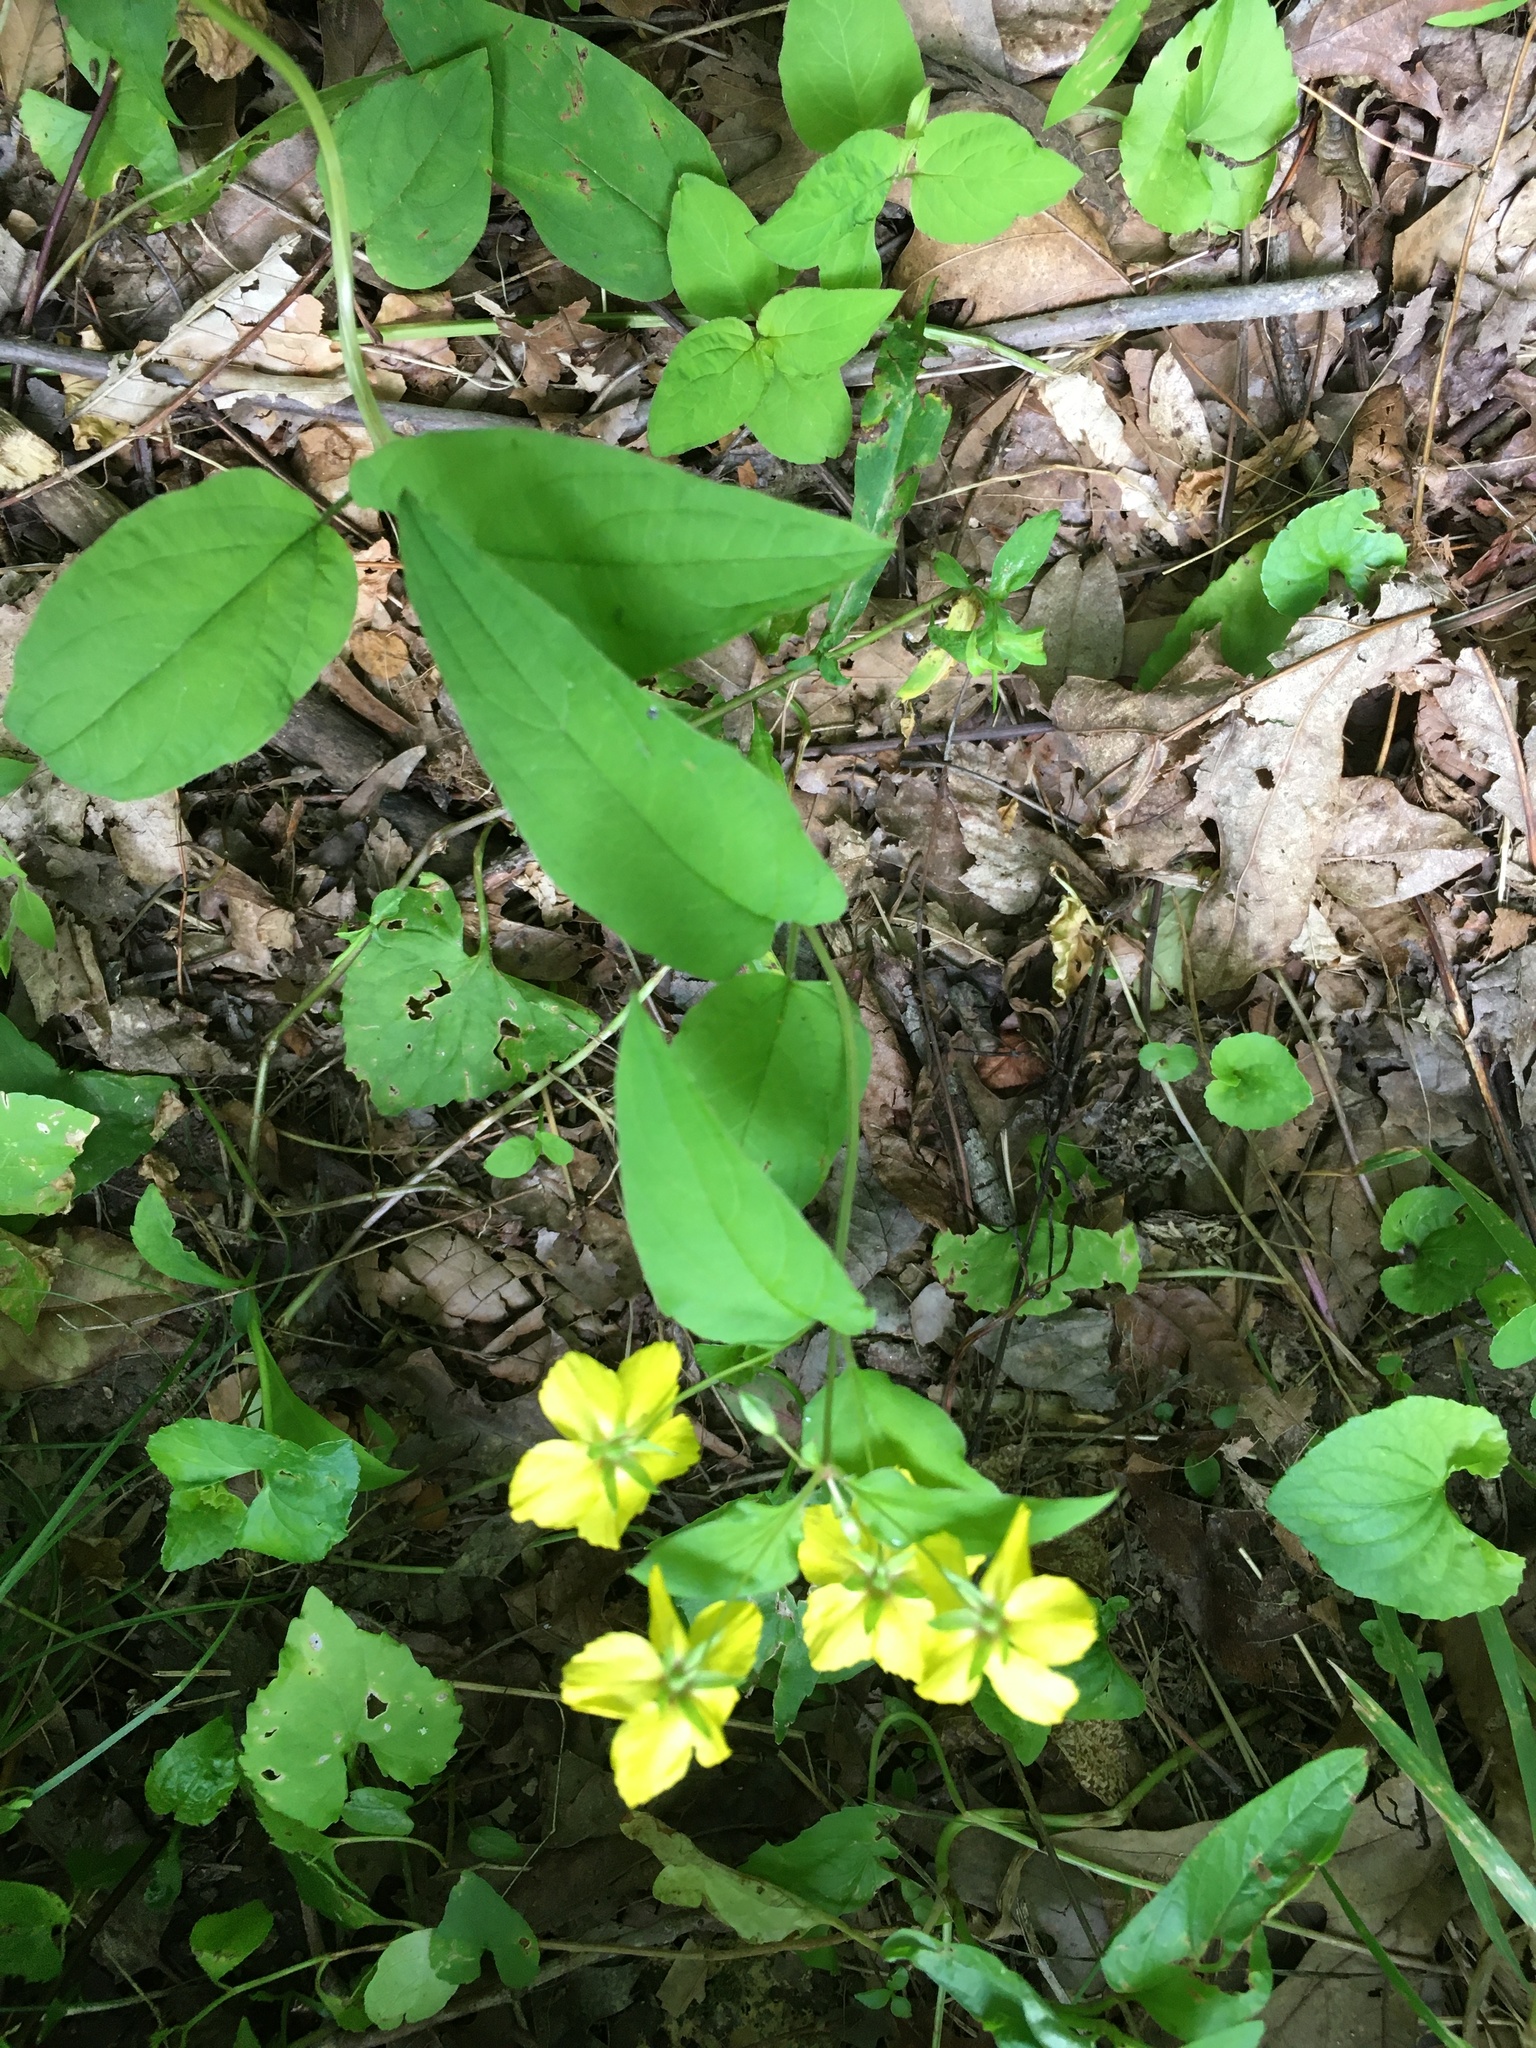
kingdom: Plantae
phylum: Tracheophyta
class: Magnoliopsida
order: Ericales
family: Primulaceae
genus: Lysimachia
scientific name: Lysimachia ciliata
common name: Fringed loosestrife
